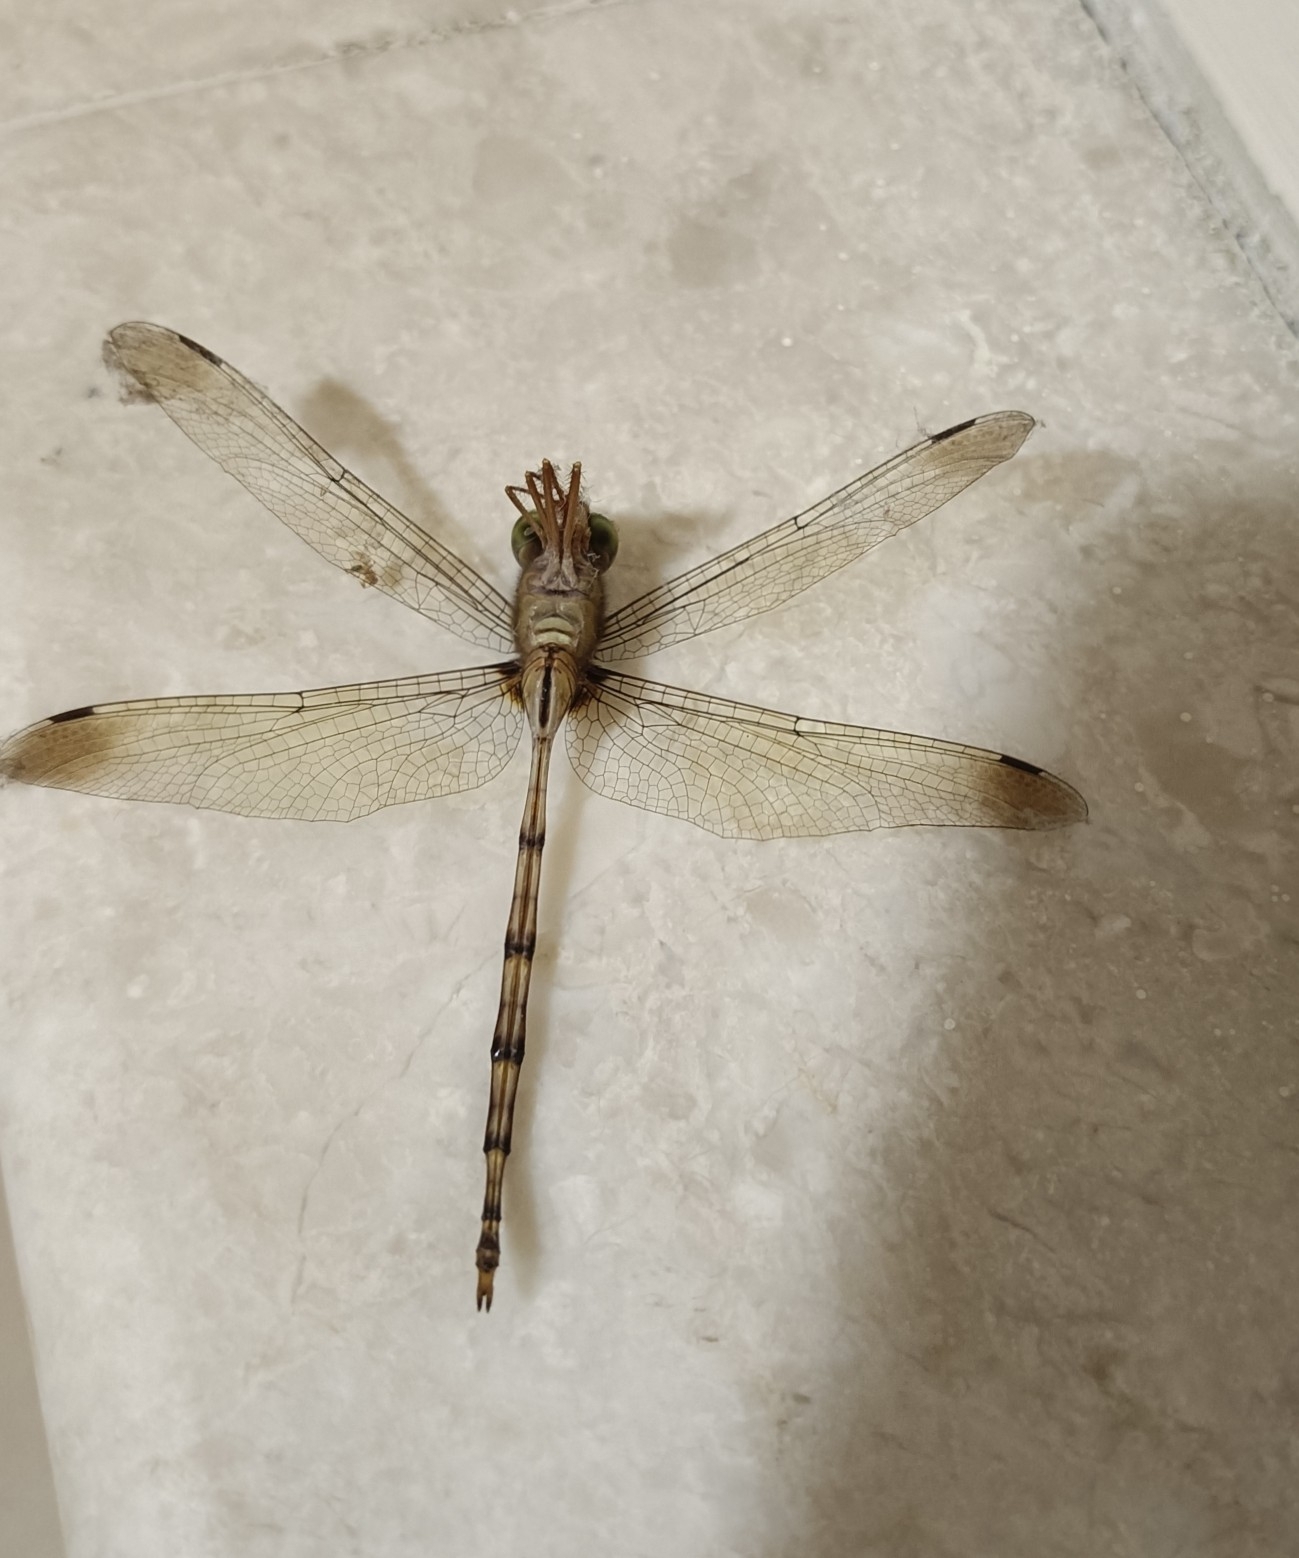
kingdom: Animalia
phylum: Arthropoda
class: Insecta
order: Odonata
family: Libellulidae
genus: Zyxomma
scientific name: Zyxomma petiolatum
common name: Dingy dusk-darter
